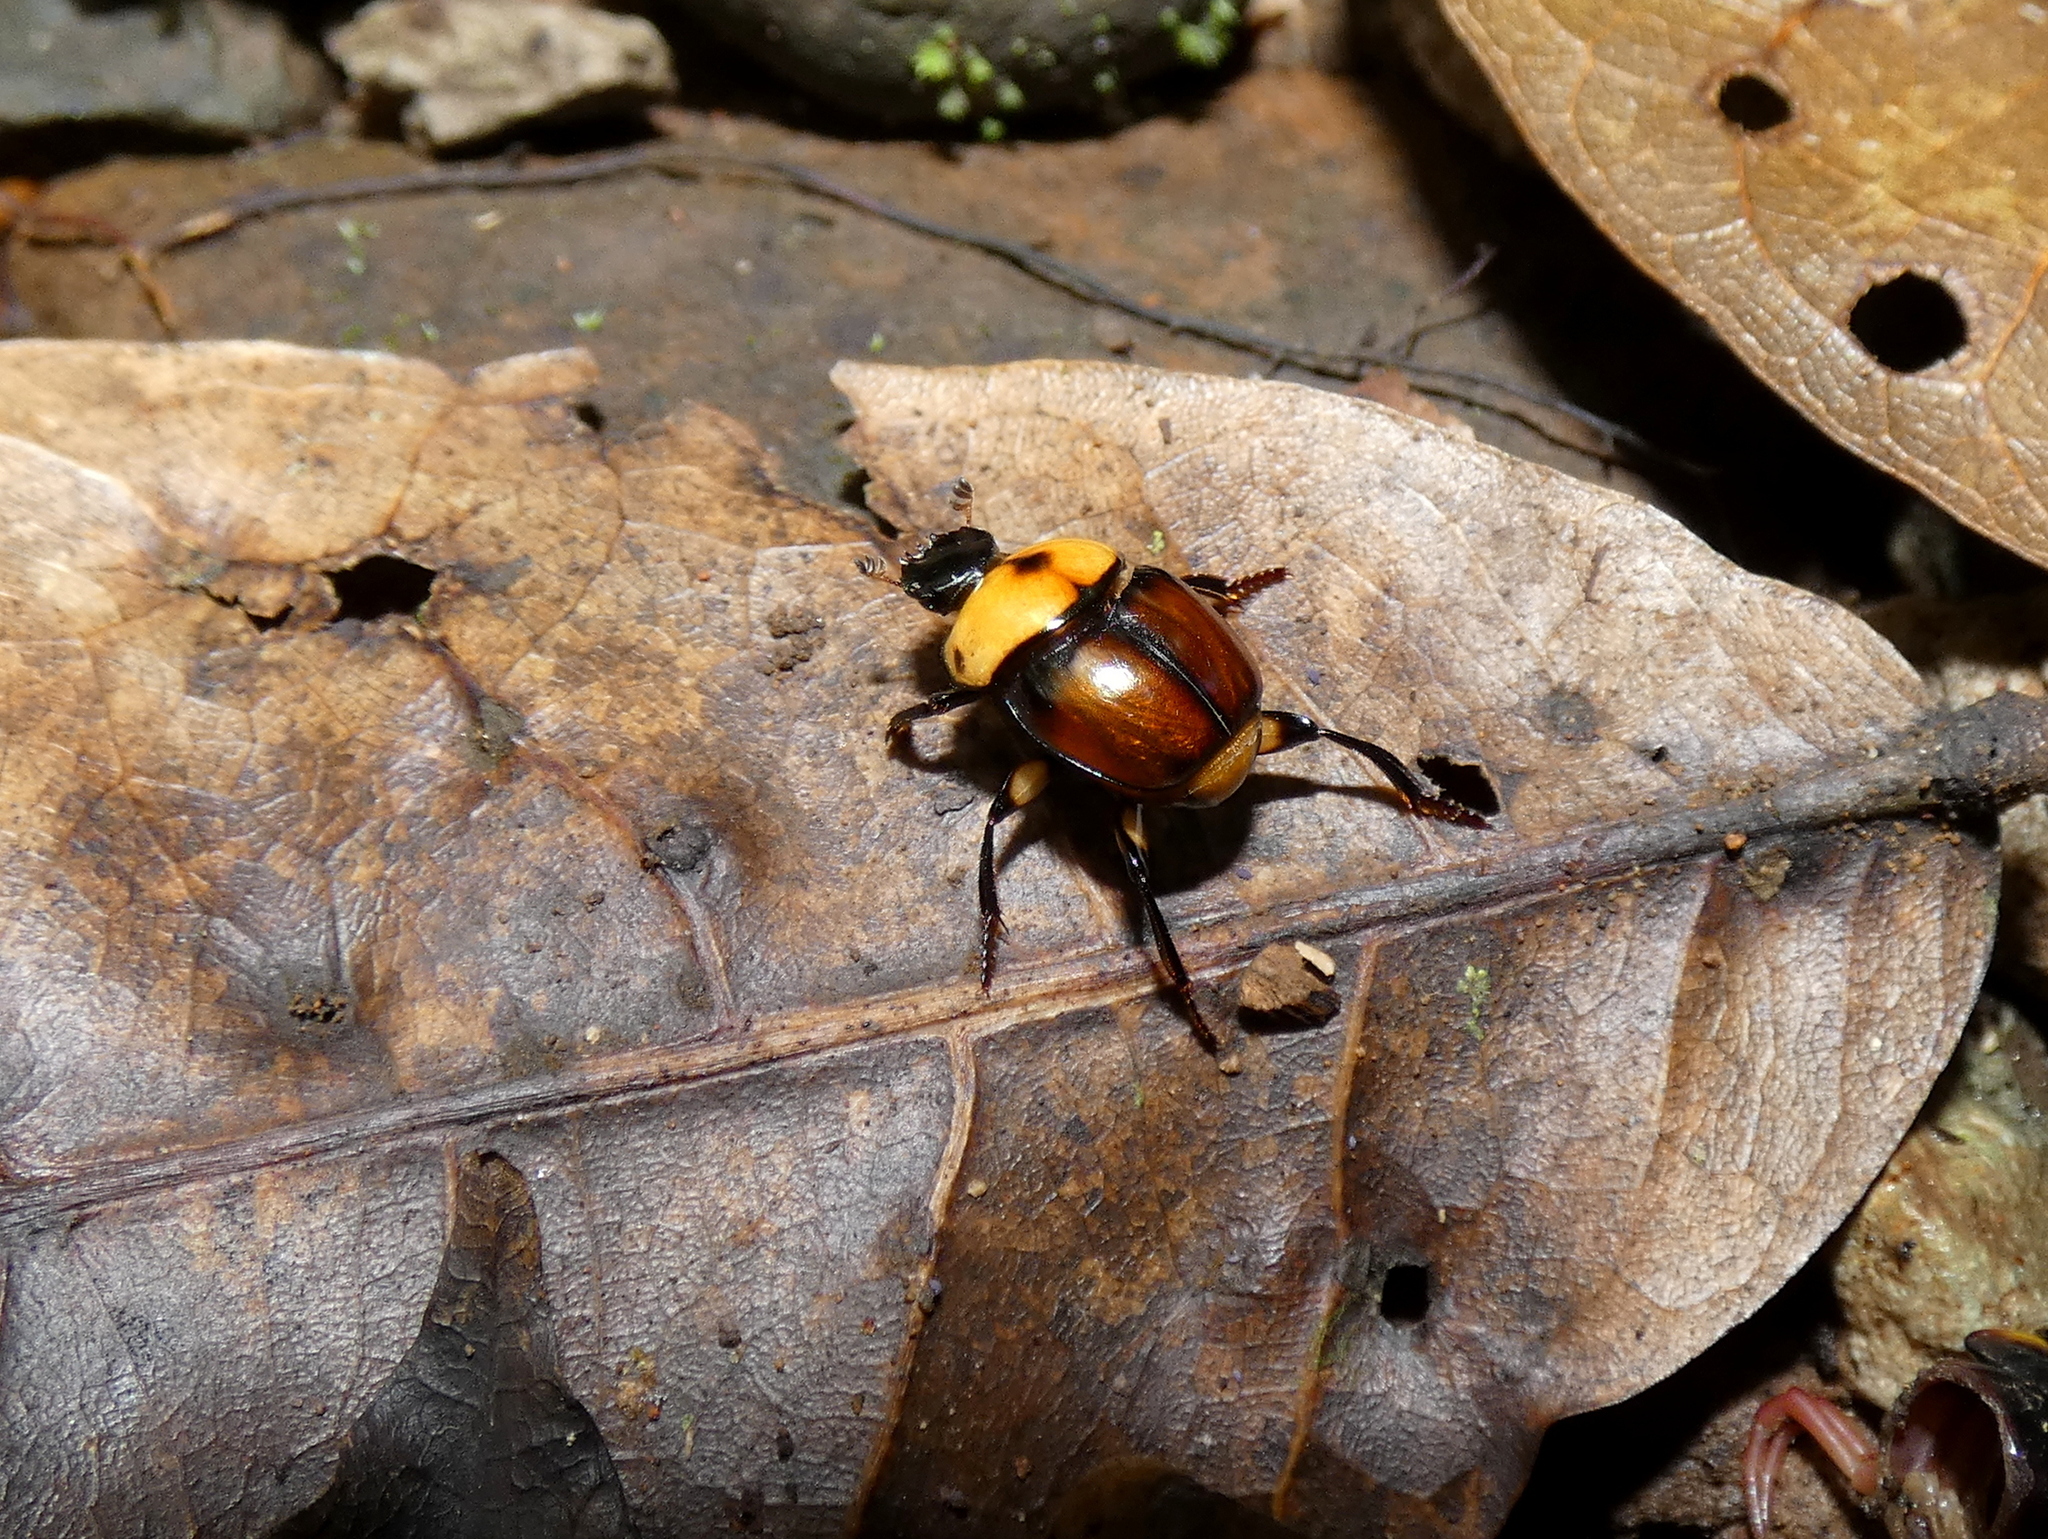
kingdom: Animalia
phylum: Arthropoda
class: Insecta
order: Coleoptera
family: Scarabaeidae
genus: Scybalocanthon
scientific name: Scybalocanthon moniliatus
